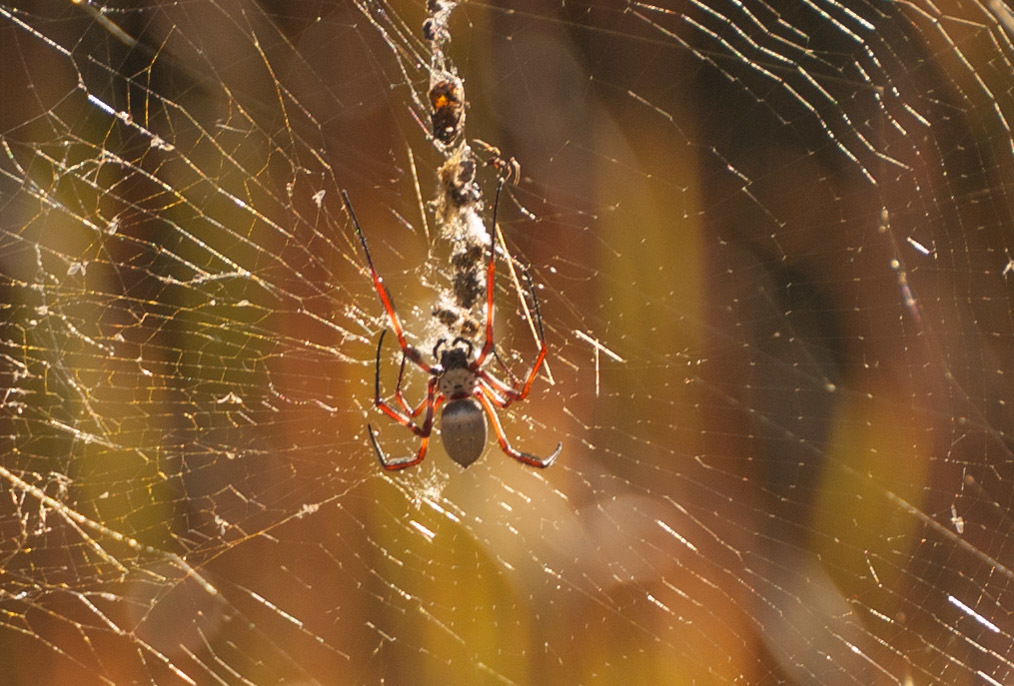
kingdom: Animalia
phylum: Arthropoda
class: Arachnida
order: Araneae
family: Araneidae
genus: Trichonephila
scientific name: Trichonephila edulis
